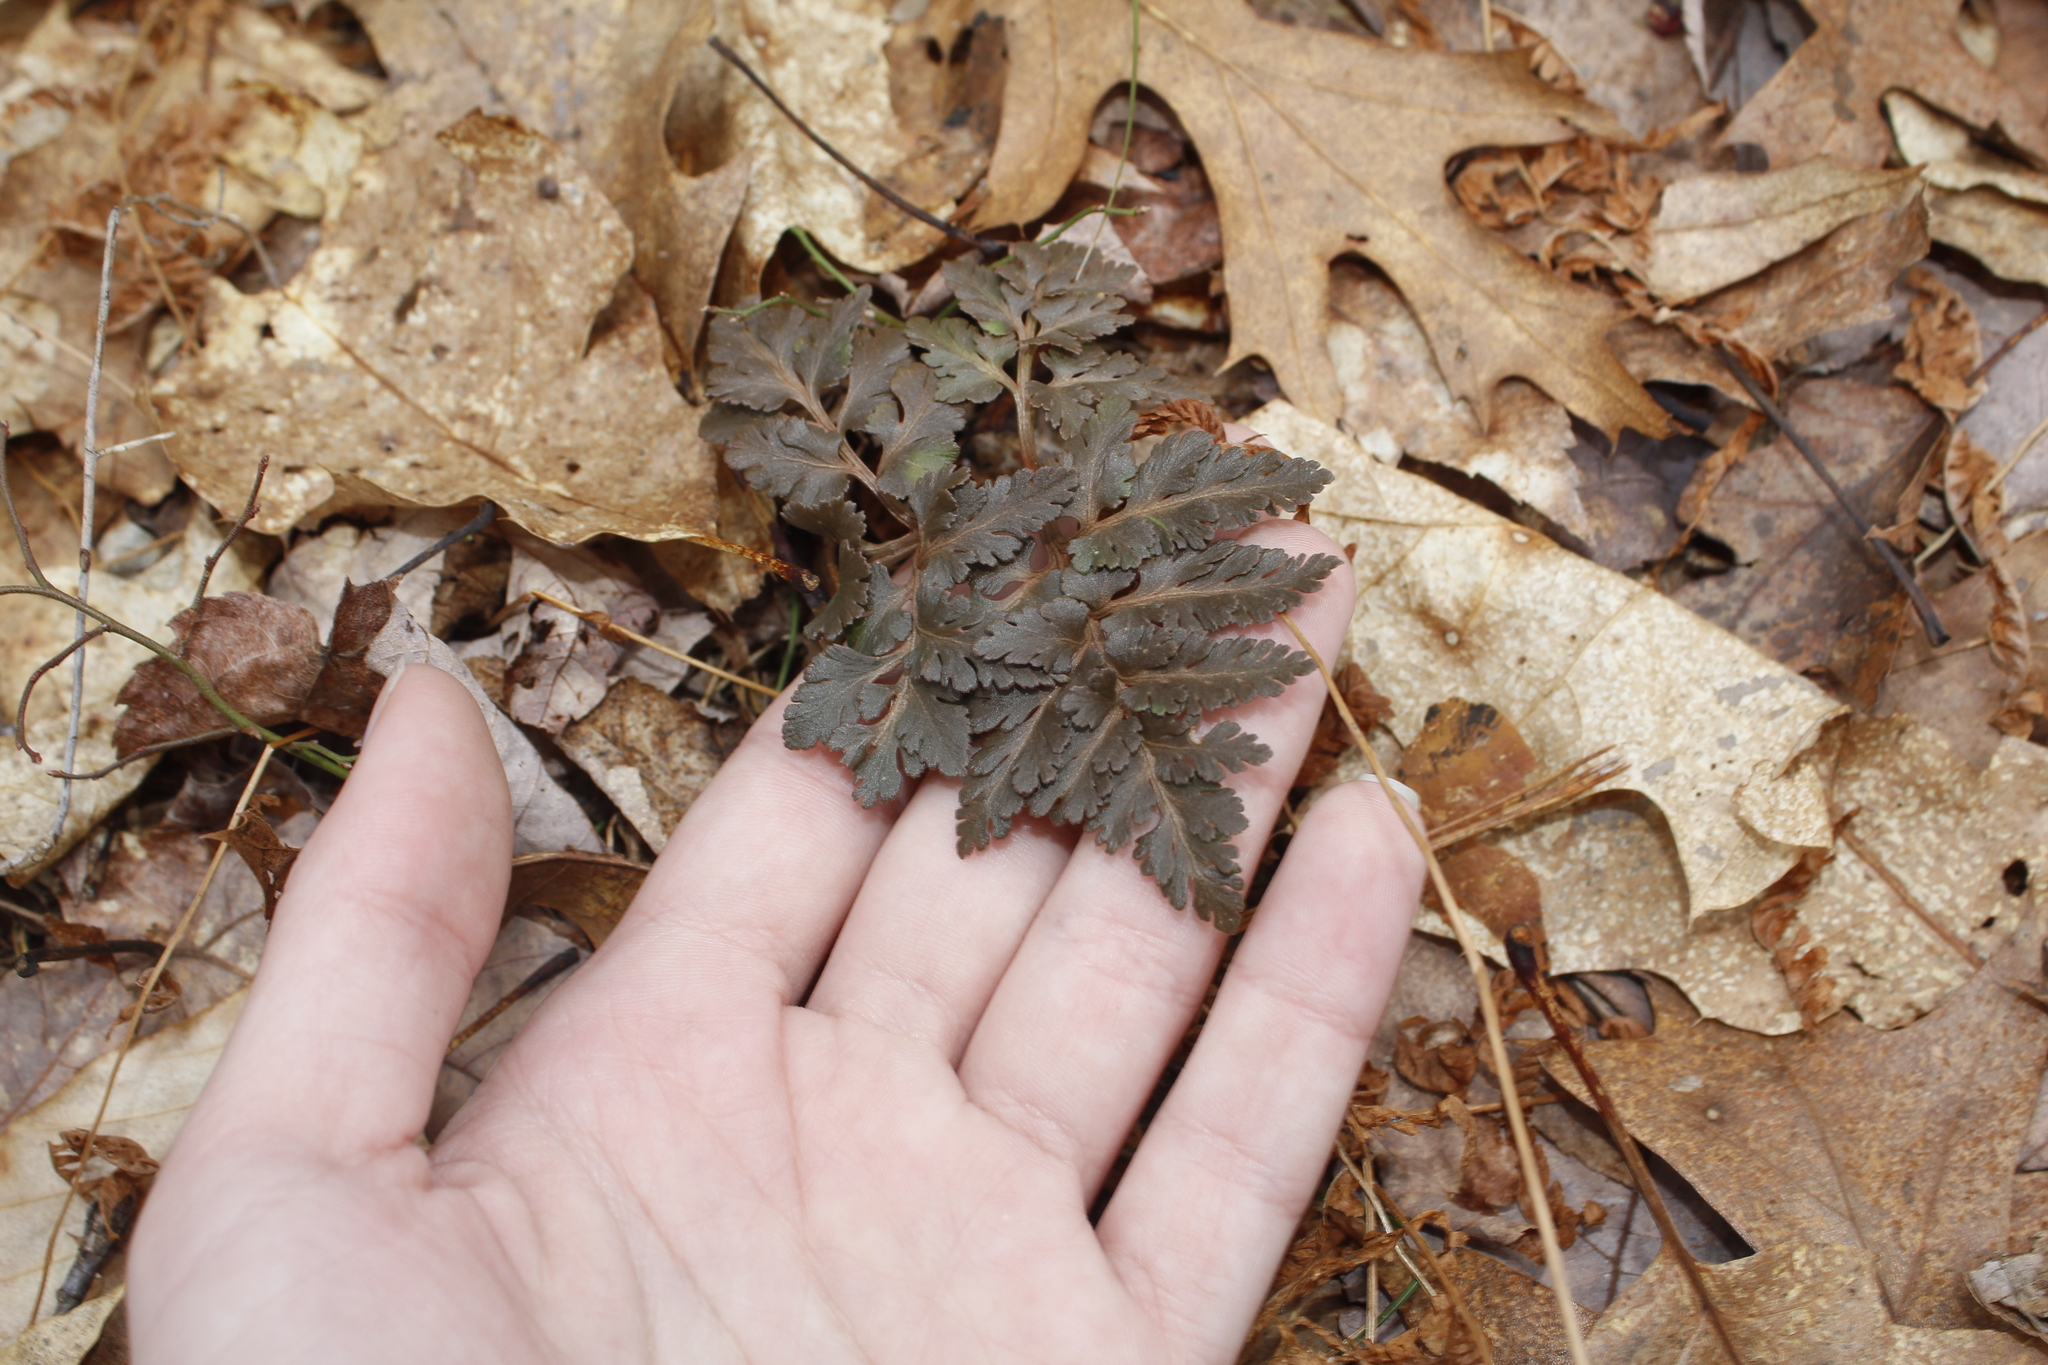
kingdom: Plantae
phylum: Tracheophyta
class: Polypodiopsida
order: Ophioglossales
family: Ophioglossaceae
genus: Sceptridium
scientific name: Sceptridium dissectum
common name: Cut-leaved grapefern
